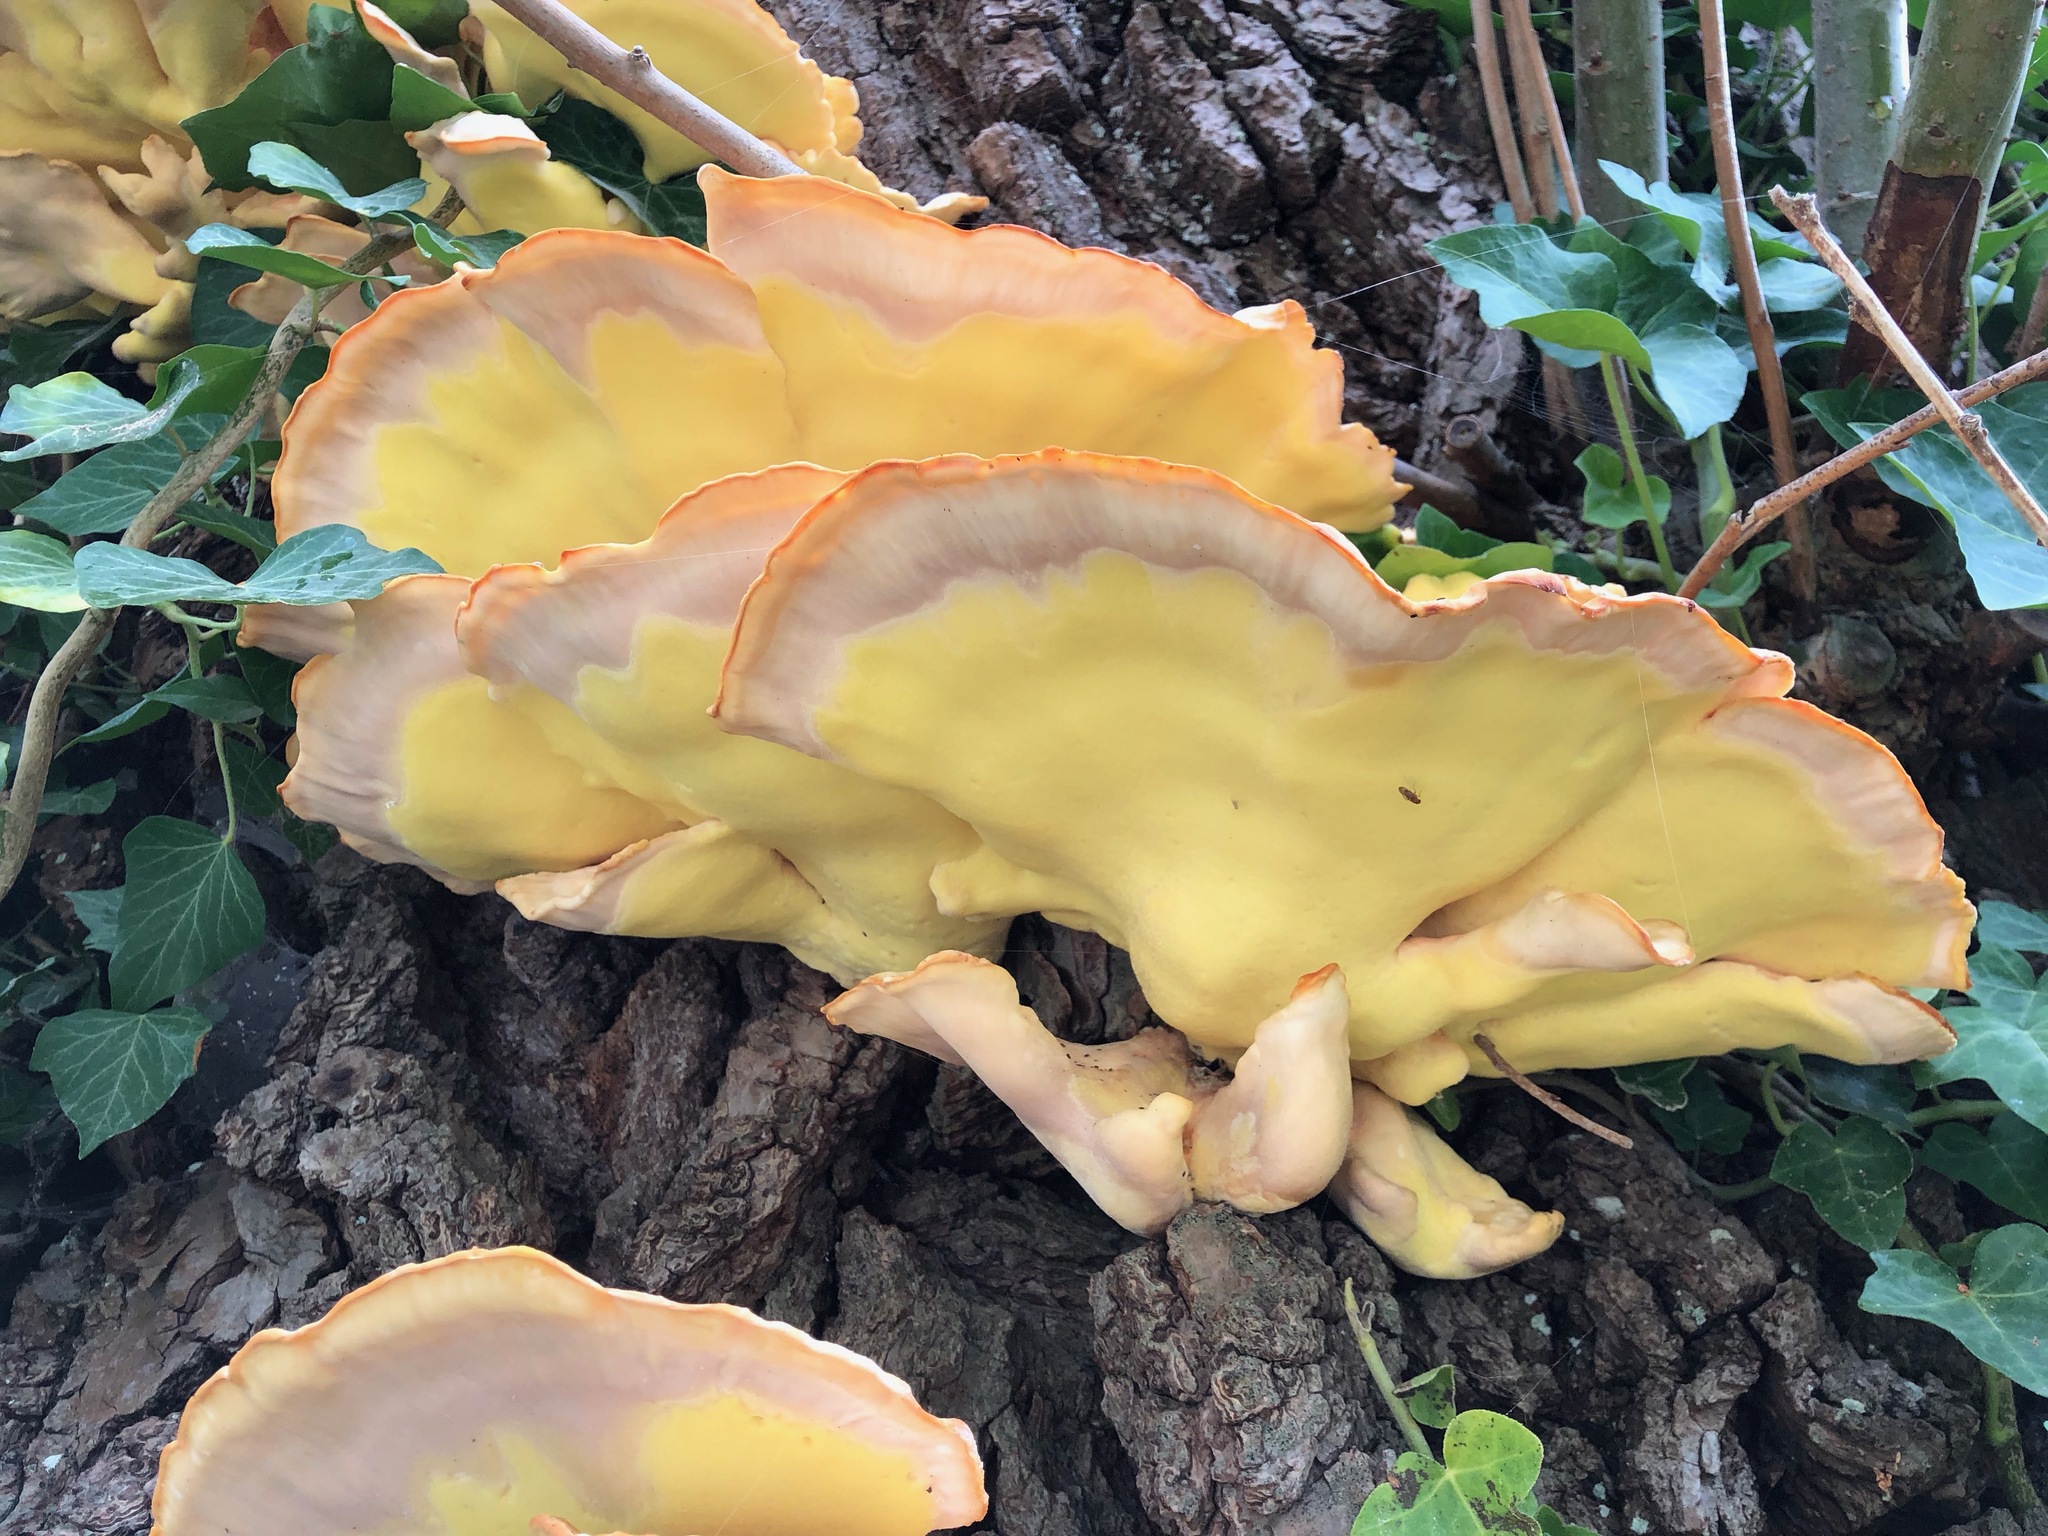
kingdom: Fungi
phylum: Basidiomycota
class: Agaricomycetes
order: Polyporales
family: Laetiporaceae
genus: Laetiporus
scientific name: Laetiporus sulphureus
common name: Chicken of the woods
